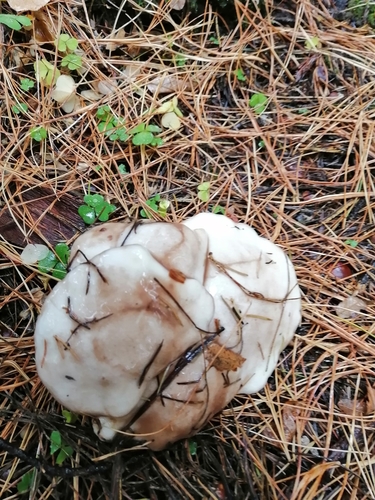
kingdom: Fungi
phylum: Basidiomycota
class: Agaricomycetes
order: Boletales
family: Suillaceae
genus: Suillus
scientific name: Suillus placidus
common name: Slippery white bolete
